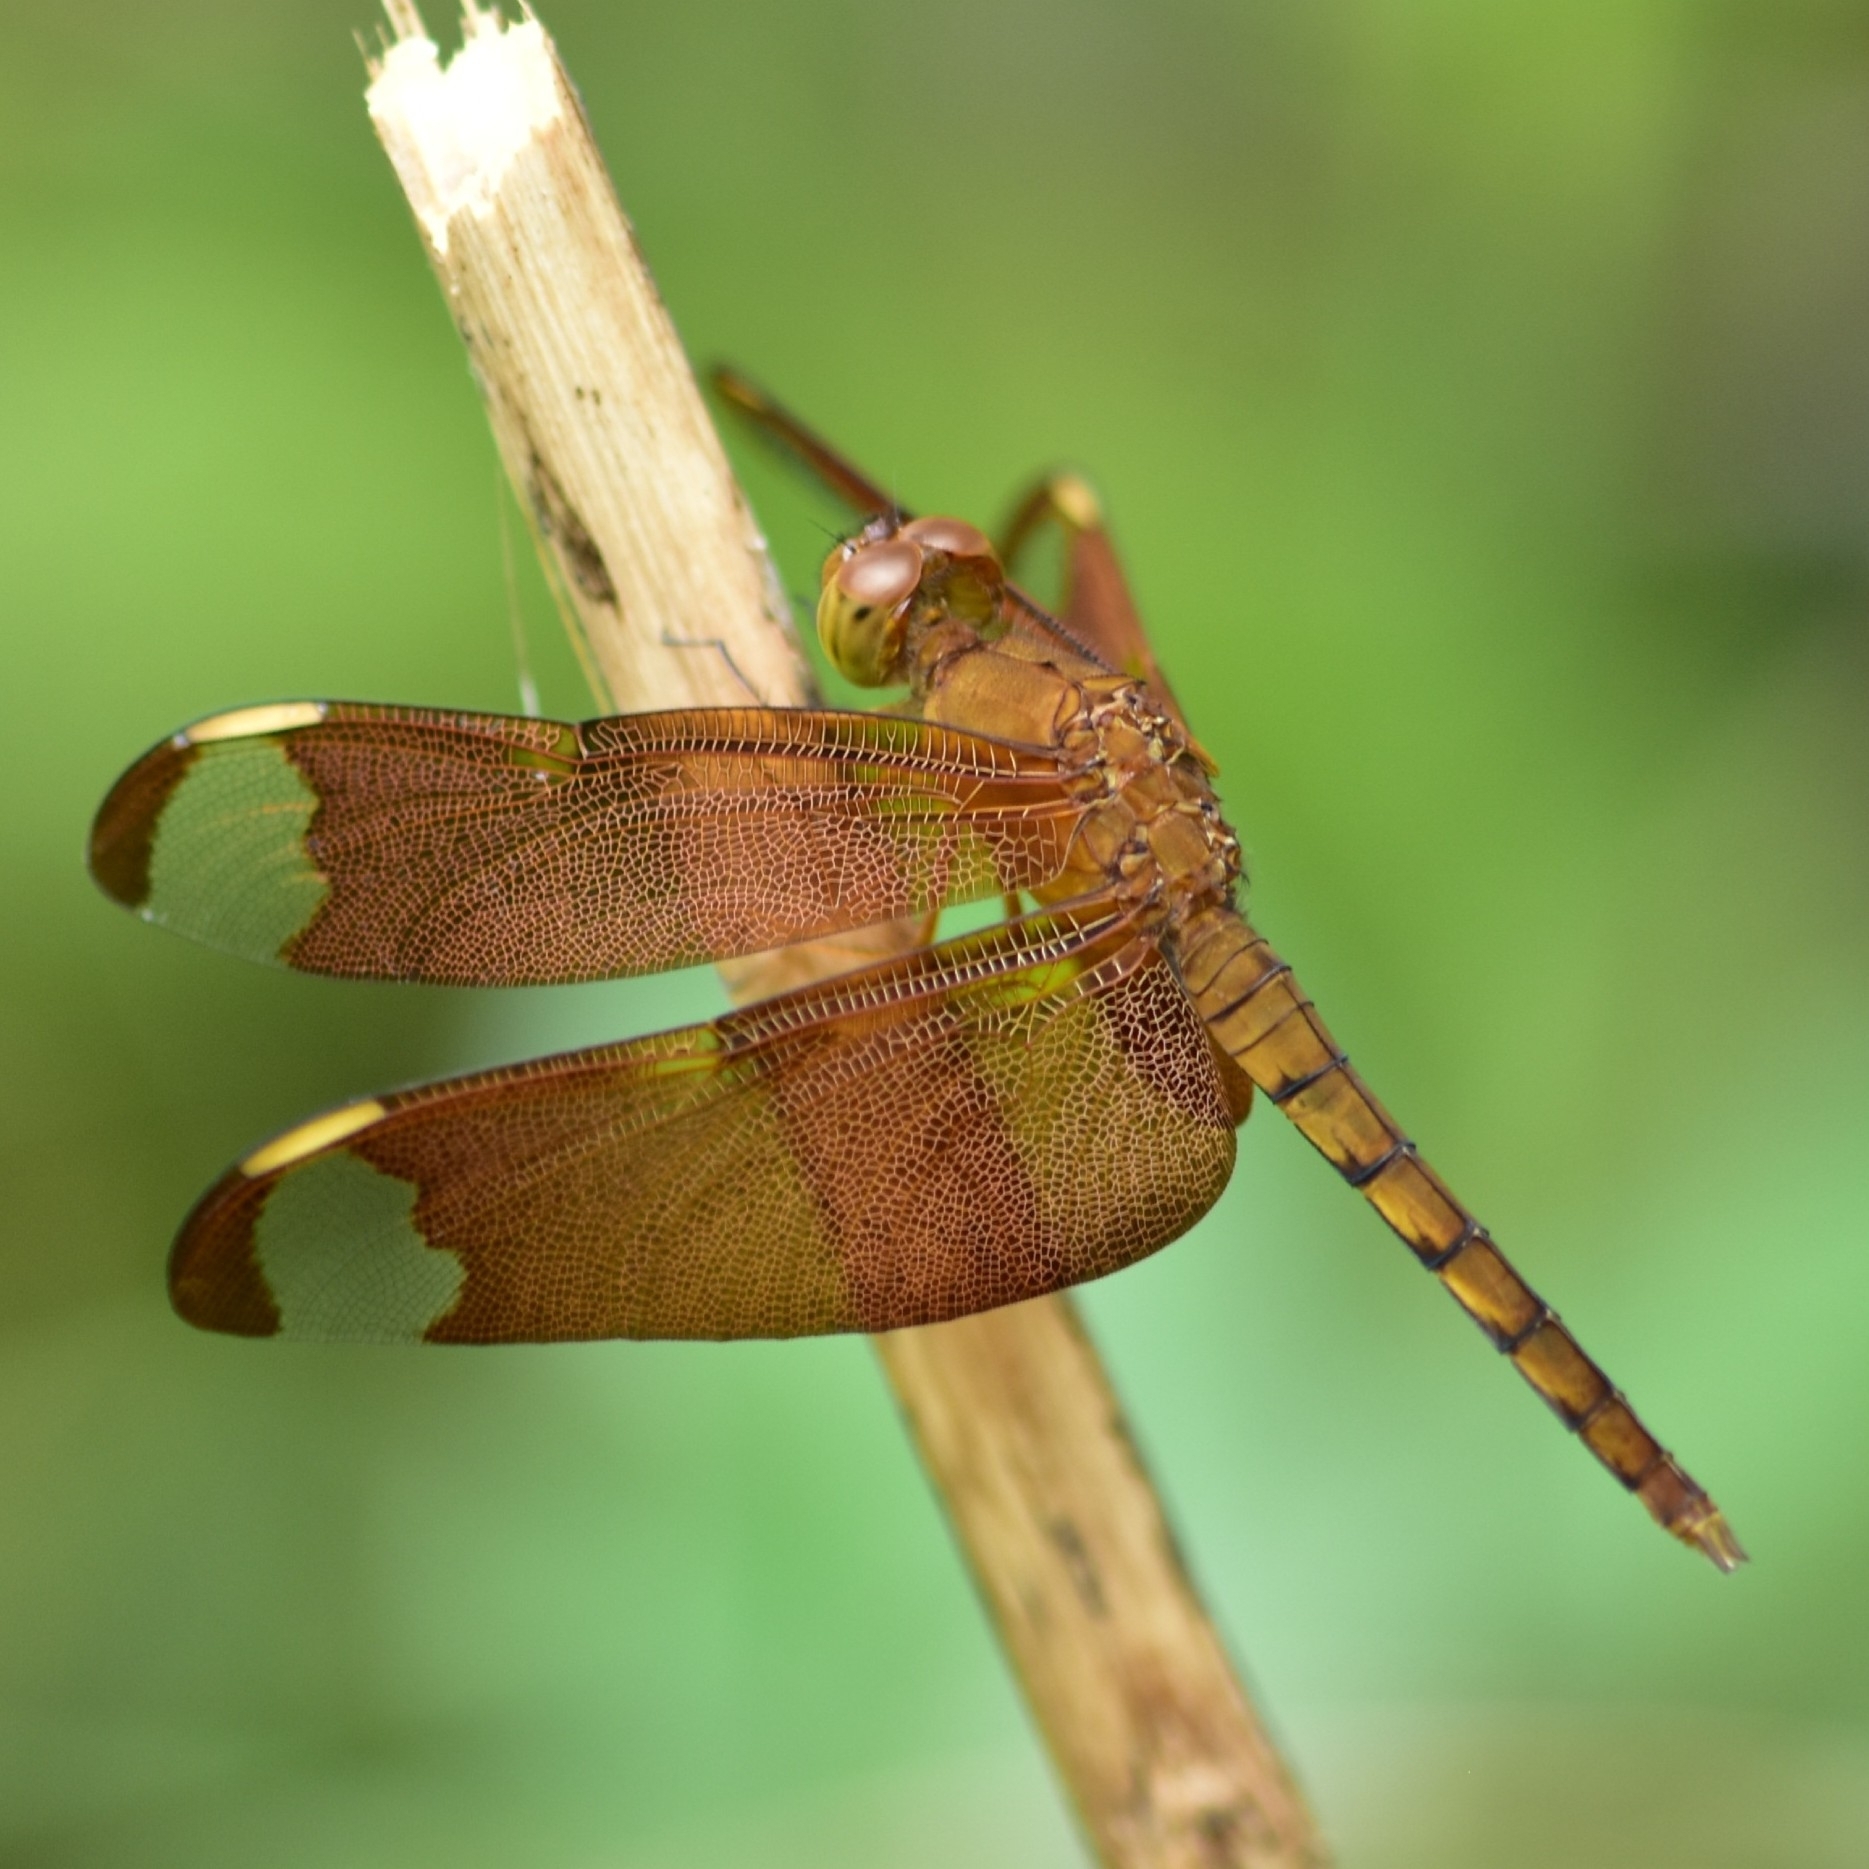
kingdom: Animalia
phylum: Arthropoda
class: Insecta
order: Odonata
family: Libellulidae
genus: Neurothemis
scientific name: Neurothemis fulvia
